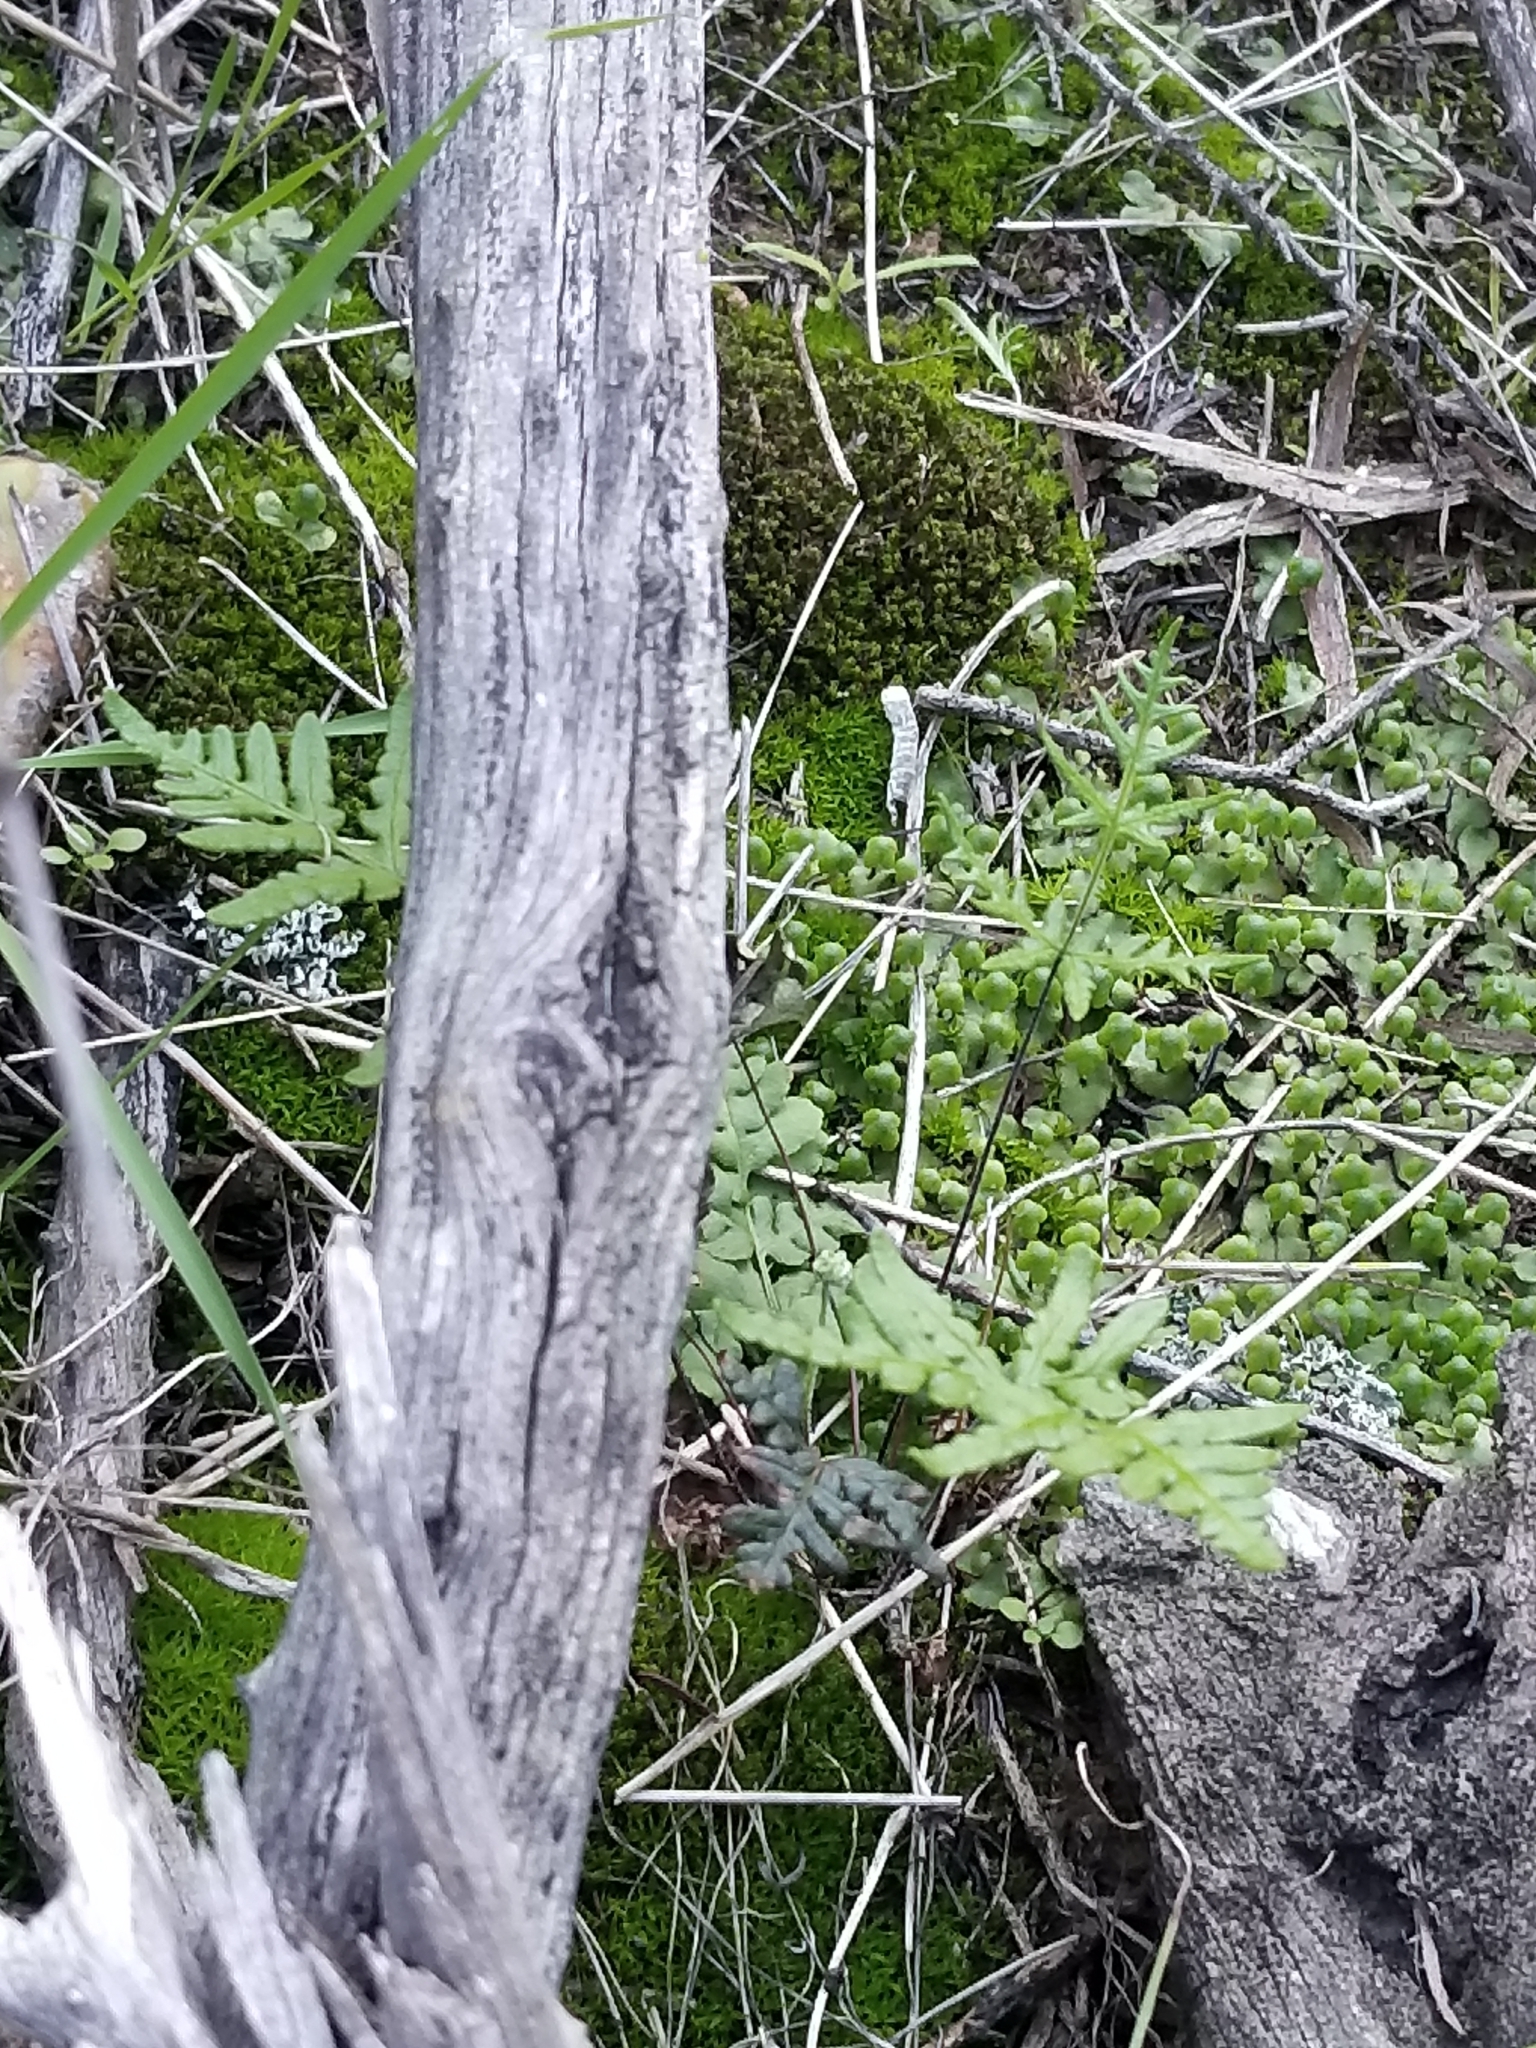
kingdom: Plantae
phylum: Tracheophyta
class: Polypodiopsida
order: Polypodiales
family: Pteridaceae
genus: Pentagramma
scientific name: Pentagramma viscosa
